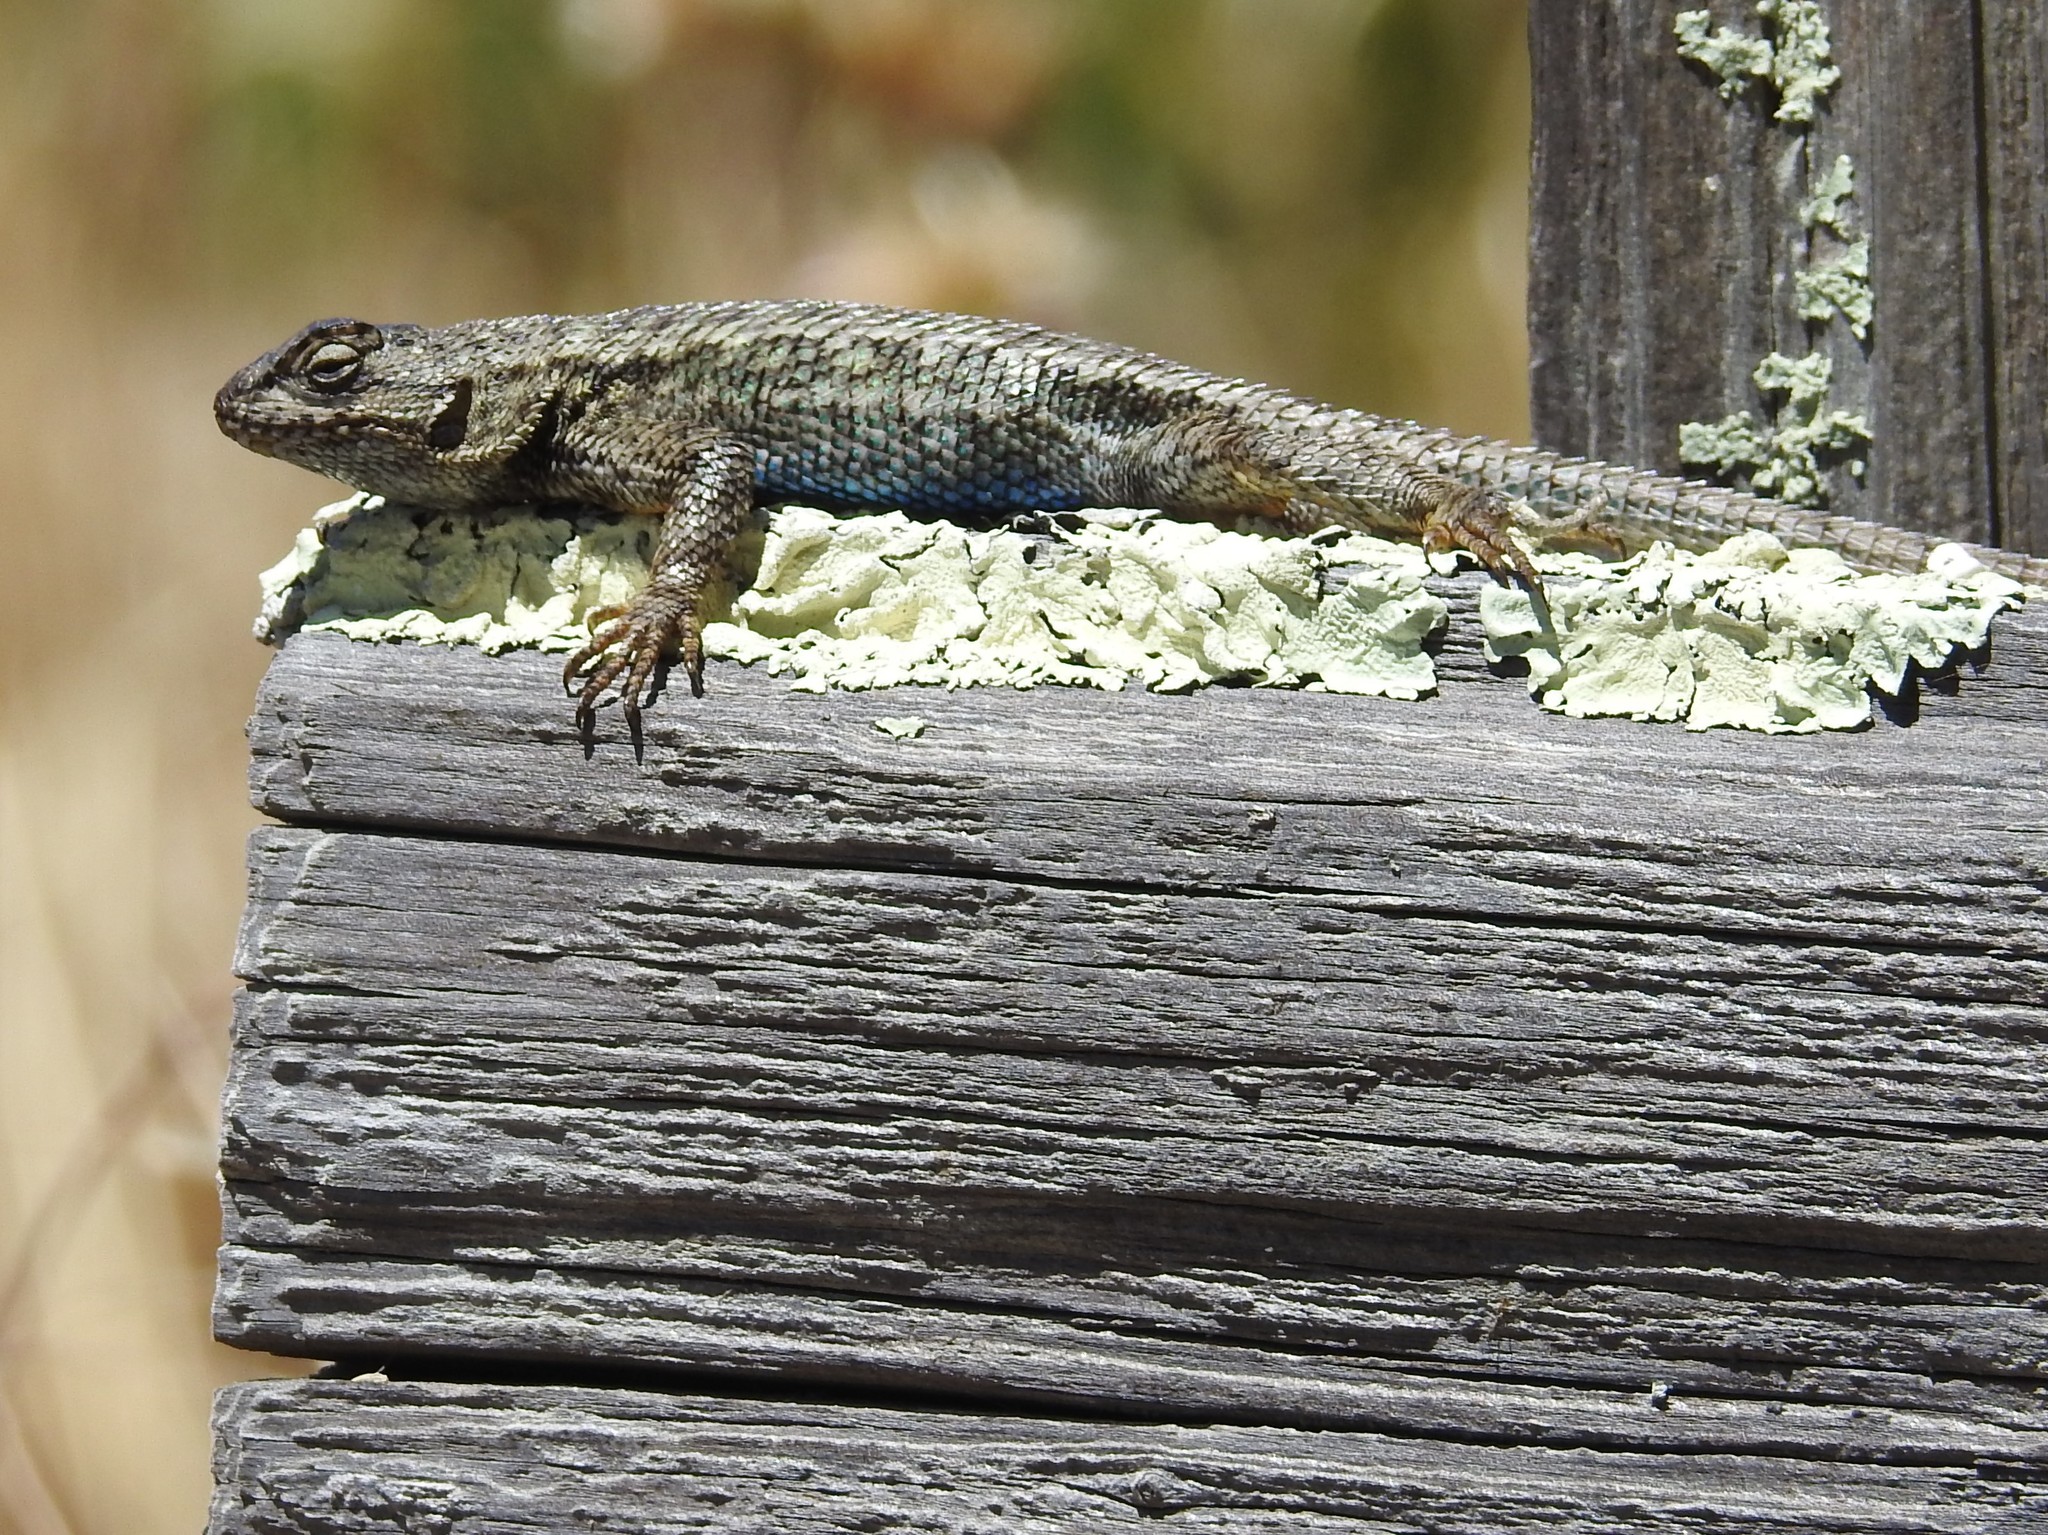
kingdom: Animalia
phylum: Chordata
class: Squamata
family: Phrynosomatidae
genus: Sceloporus
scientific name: Sceloporus occidentalis
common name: Western fence lizard
